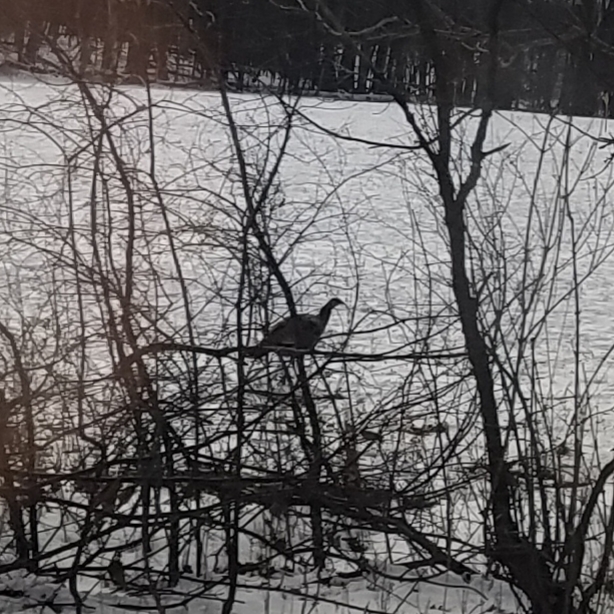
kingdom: Animalia
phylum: Chordata
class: Aves
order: Galliformes
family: Phasianidae
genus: Meleagris
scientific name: Meleagris gallopavo
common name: Wild turkey
